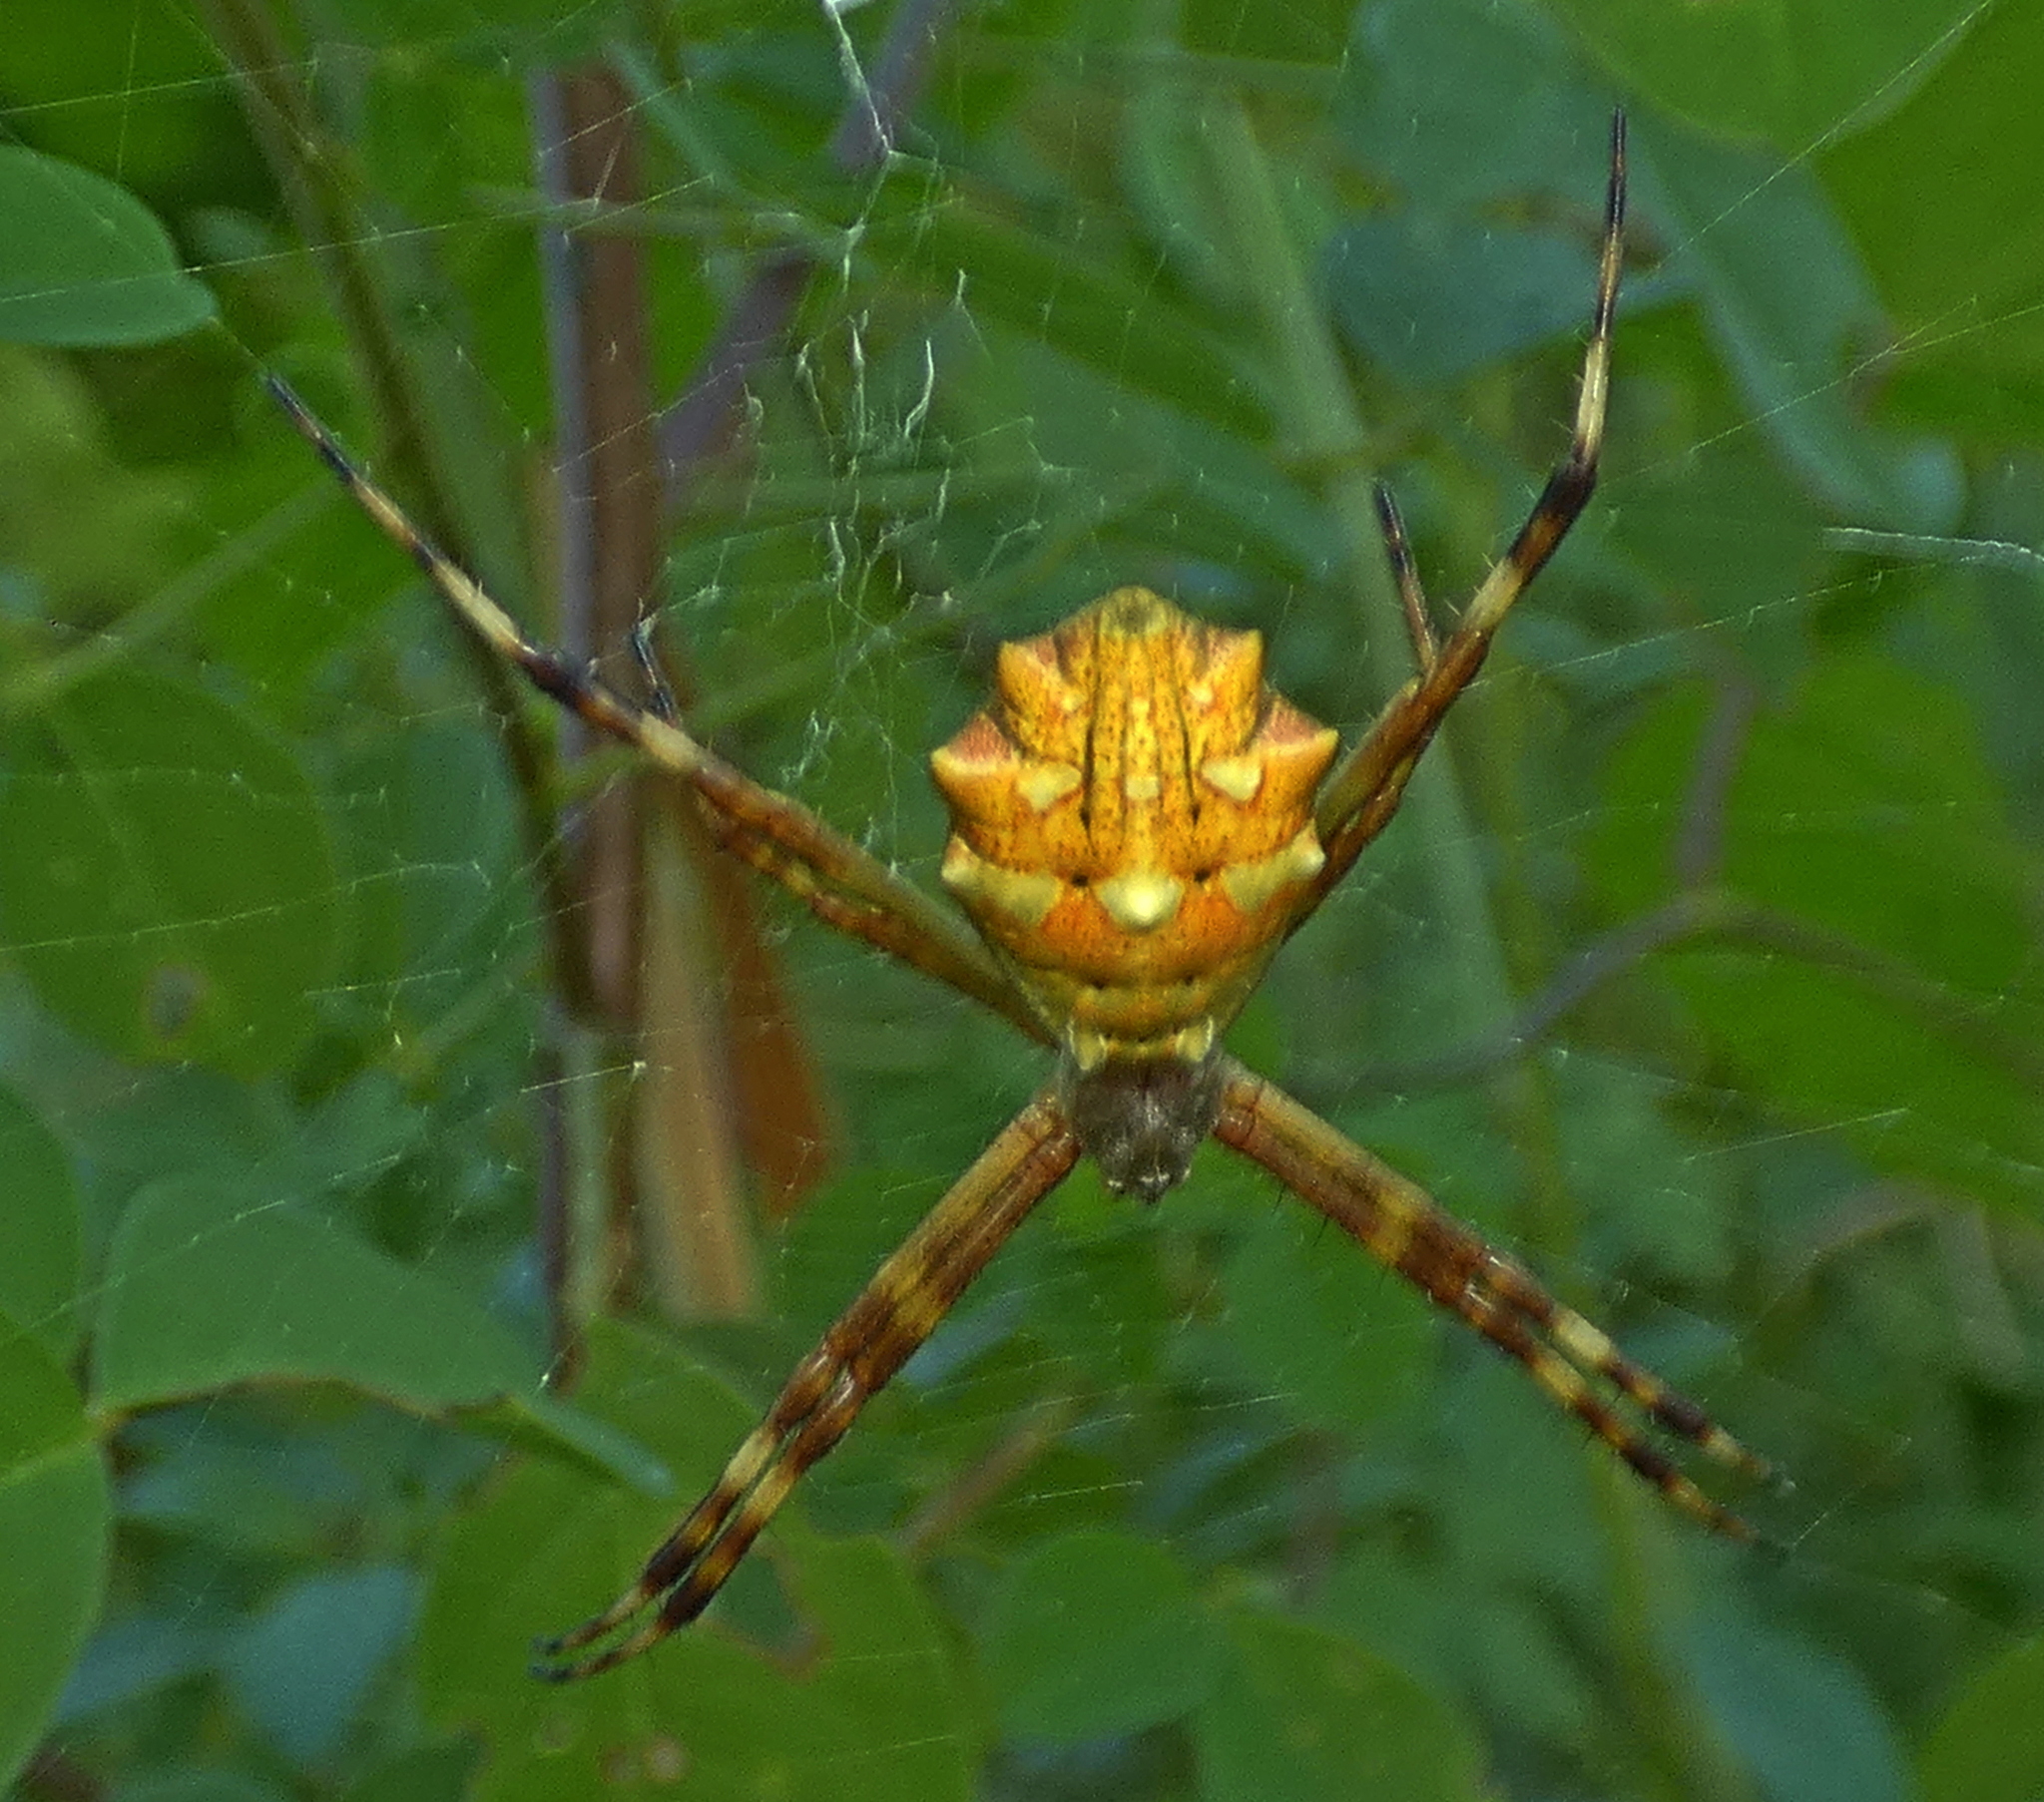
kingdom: Animalia
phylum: Arthropoda
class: Arachnida
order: Araneae
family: Araneidae
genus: Argiope
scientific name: Argiope argentata
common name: Orb weavers
